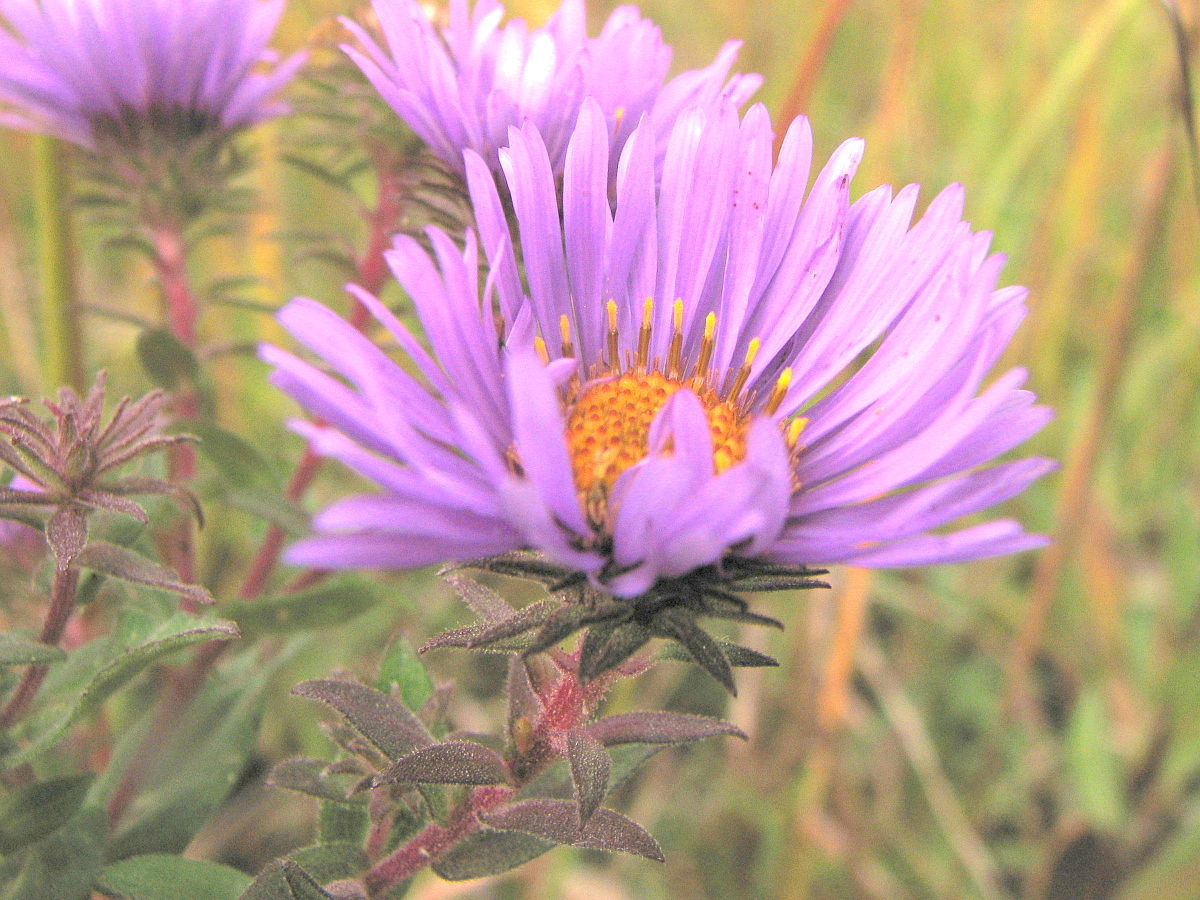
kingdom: Plantae
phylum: Tracheophyta
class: Magnoliopsida
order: Asterales
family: Asteraceae
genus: Symphyotrichum
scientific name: Symphyotrichum novae-angliae
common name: Michaelmas daisy
